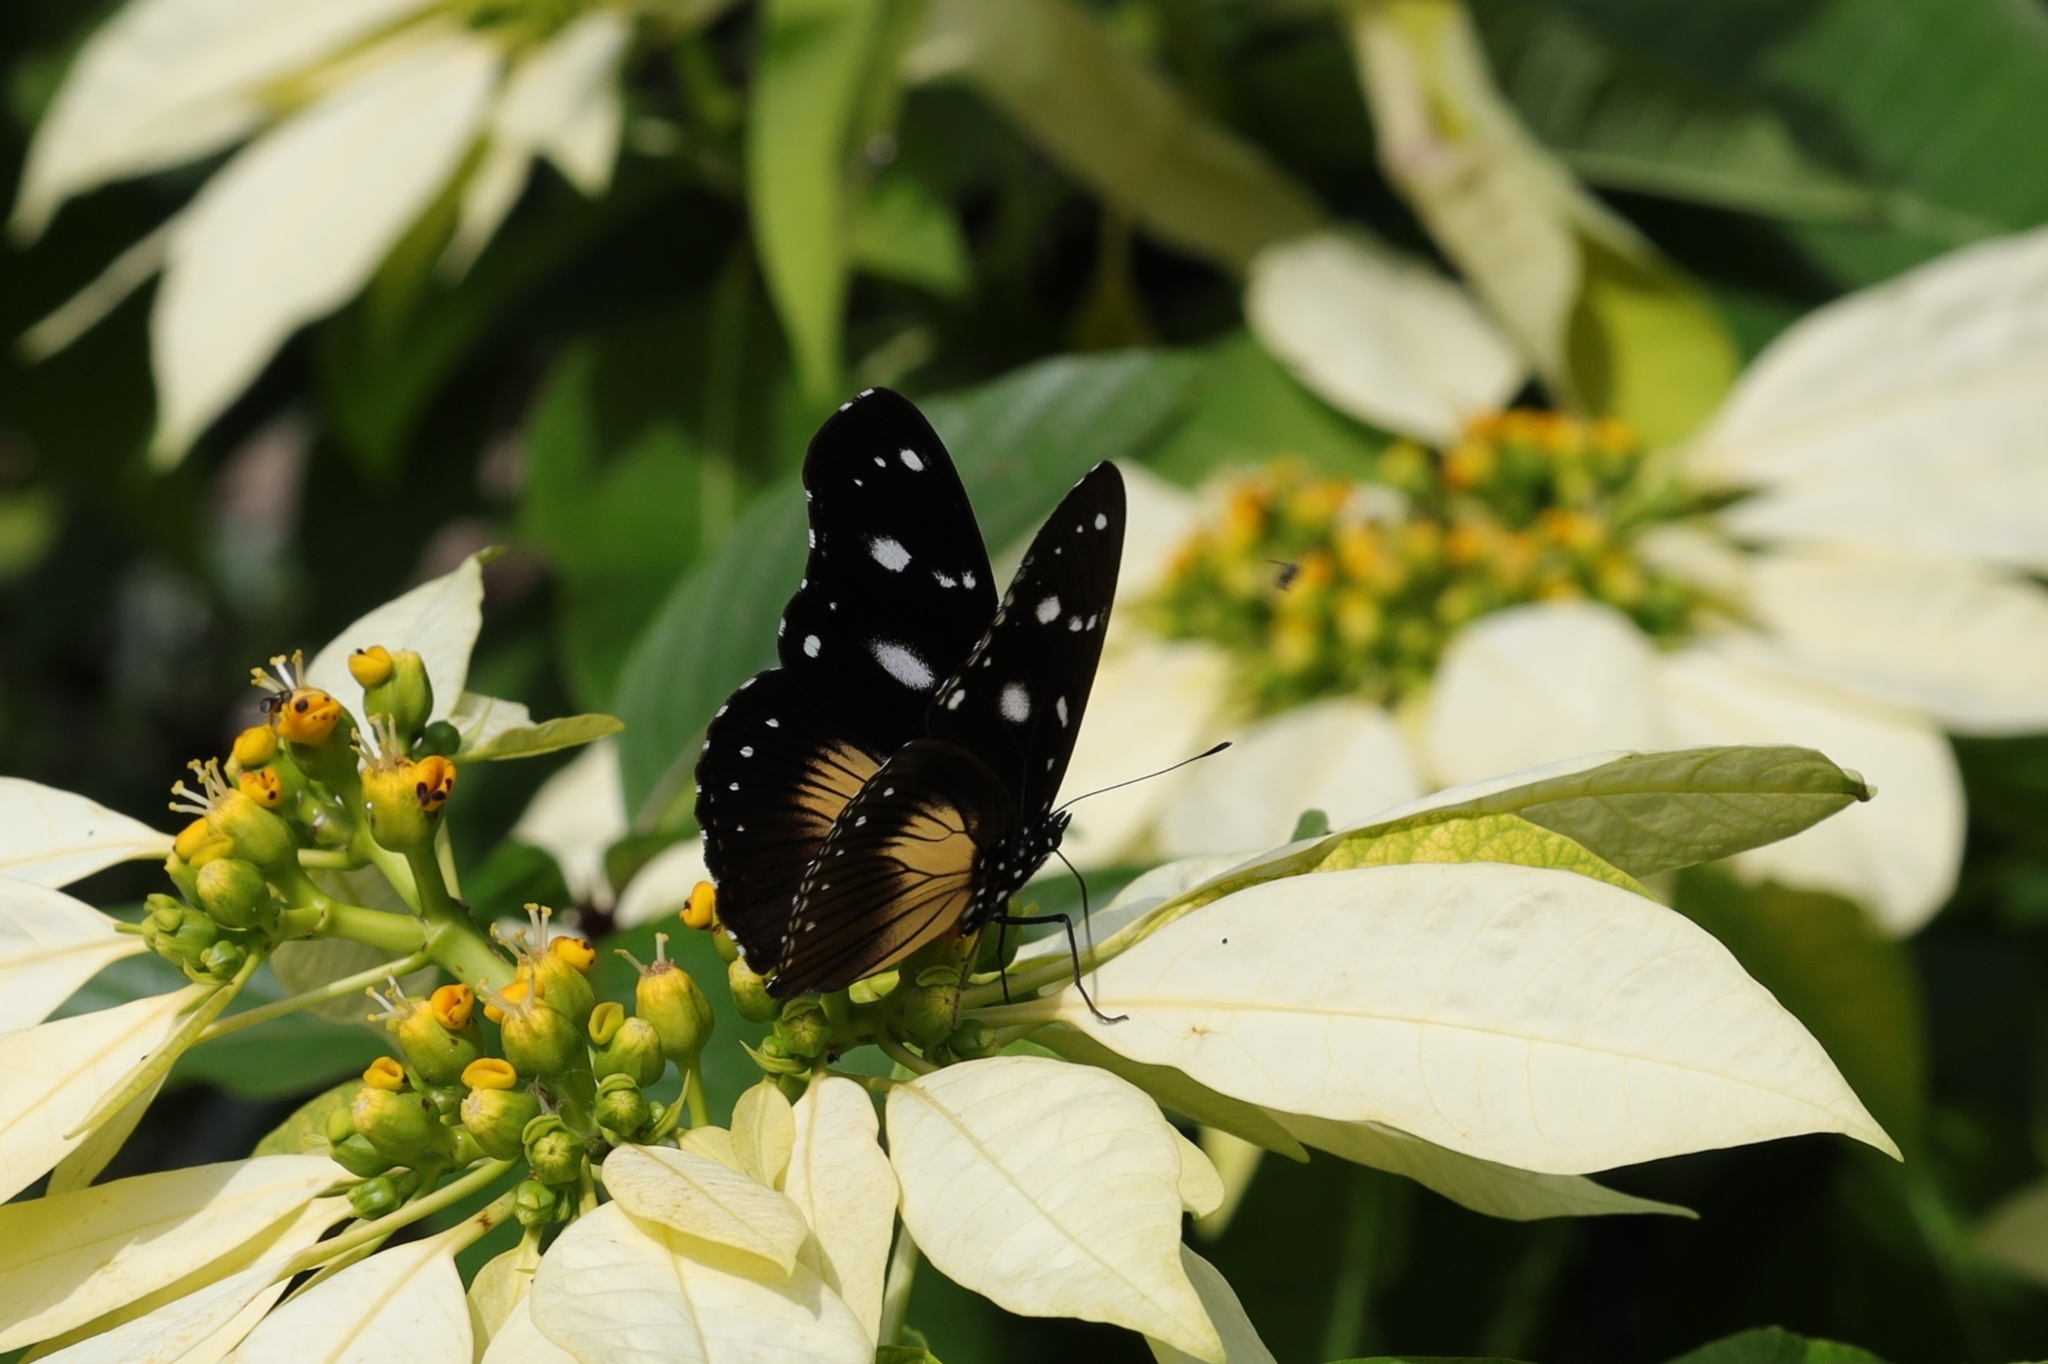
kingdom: Animalia
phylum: Arthropoda
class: Insecta
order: Lepidoptera
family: Nymphalidae
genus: Hypolimnas
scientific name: Hypolimnas dubius
